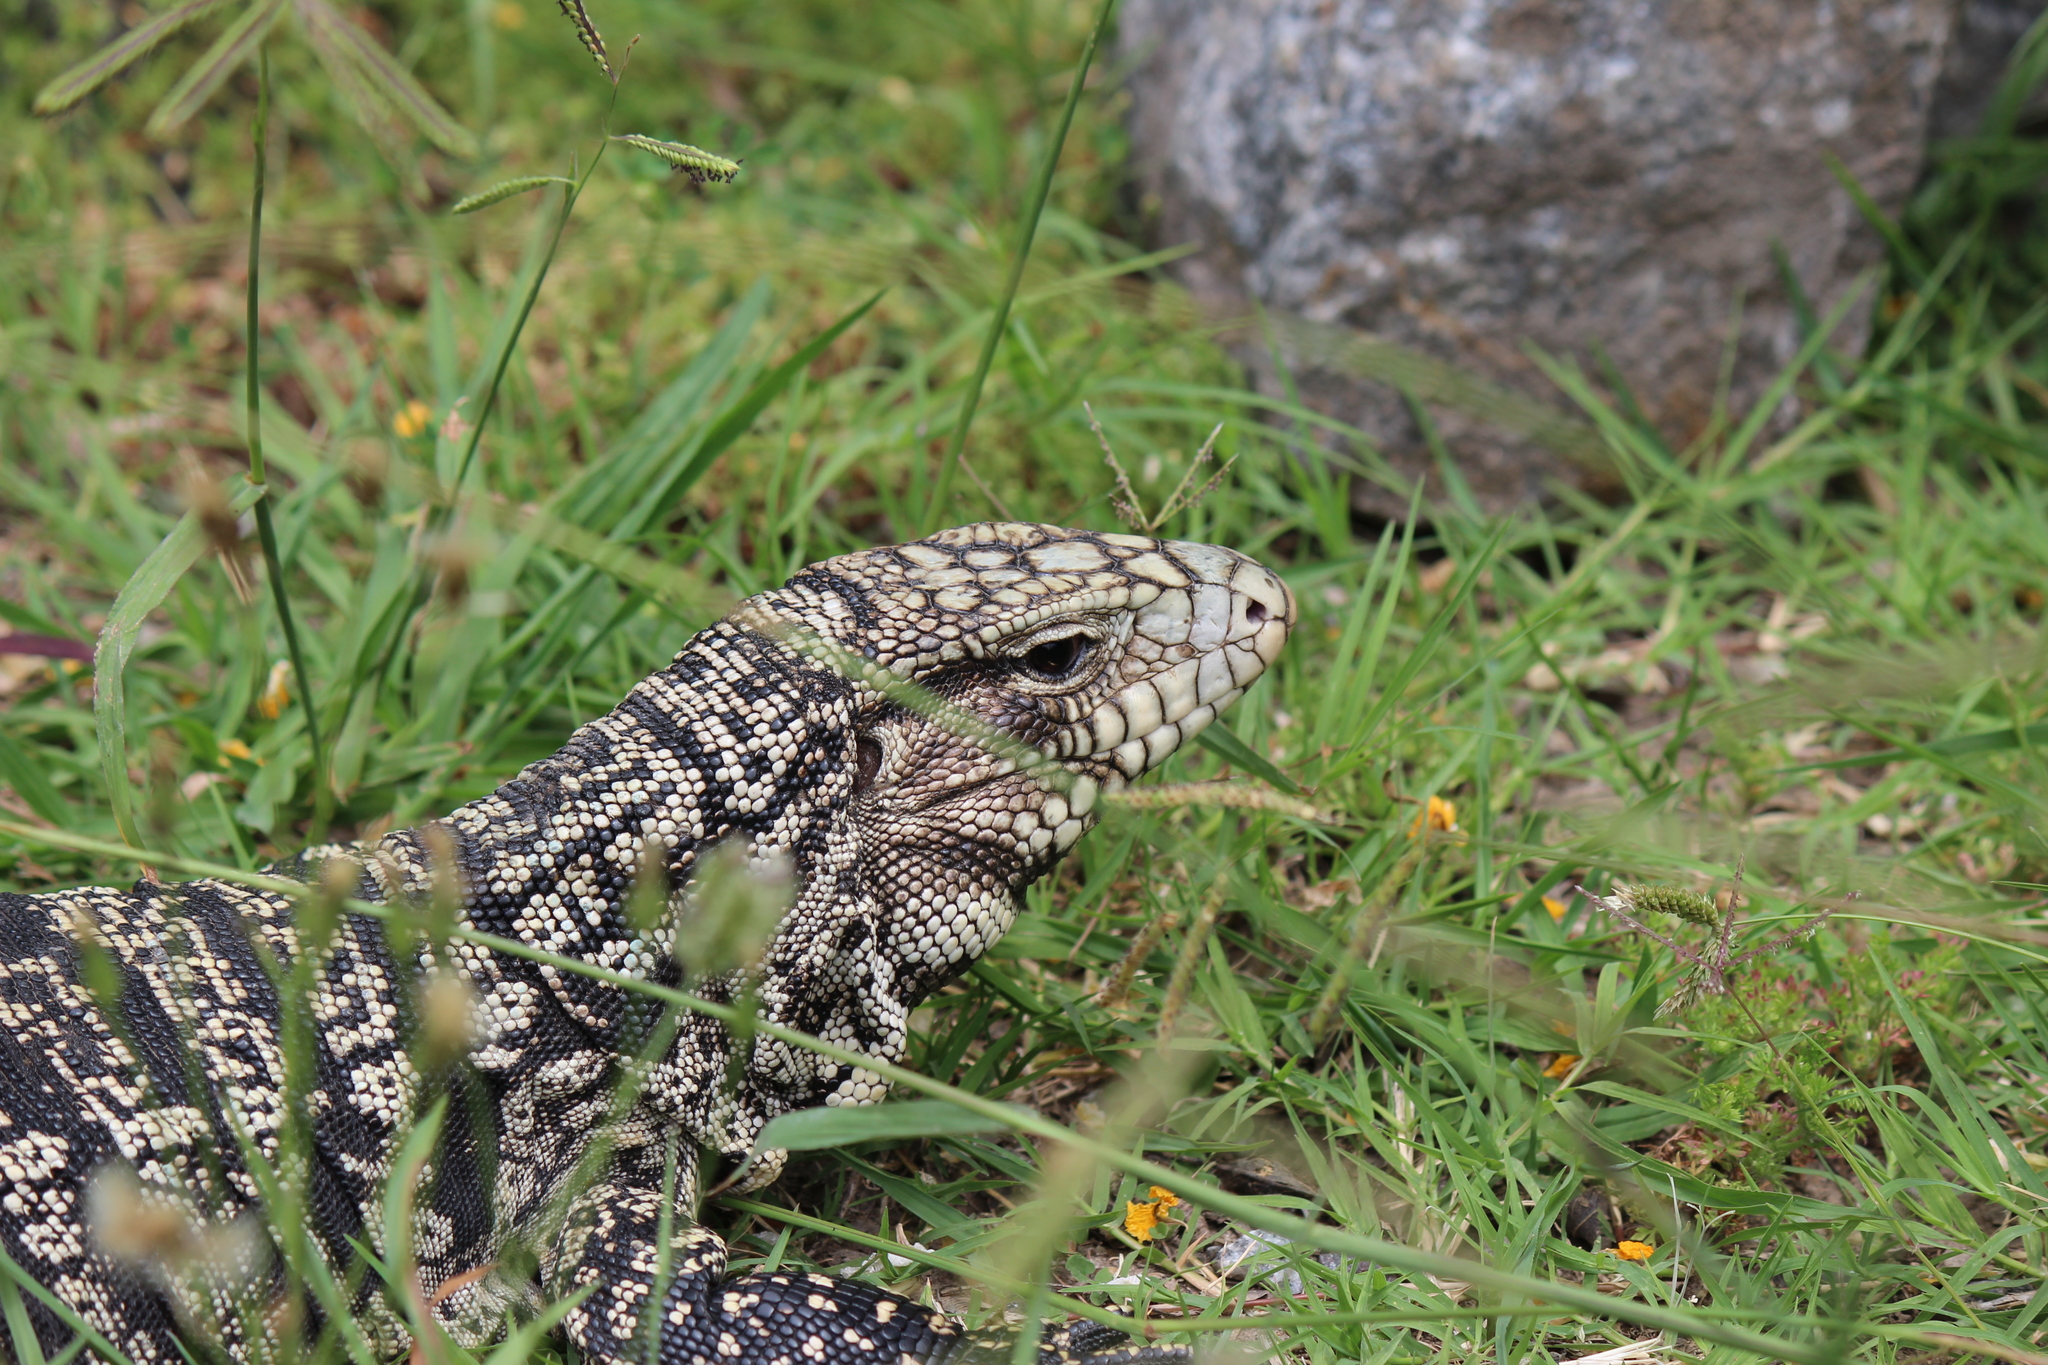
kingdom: Animalia
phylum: Chordata
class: Squamata
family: Teiidae
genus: Salvator
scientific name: Salvator merianae
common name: Argentine black and white tegu
